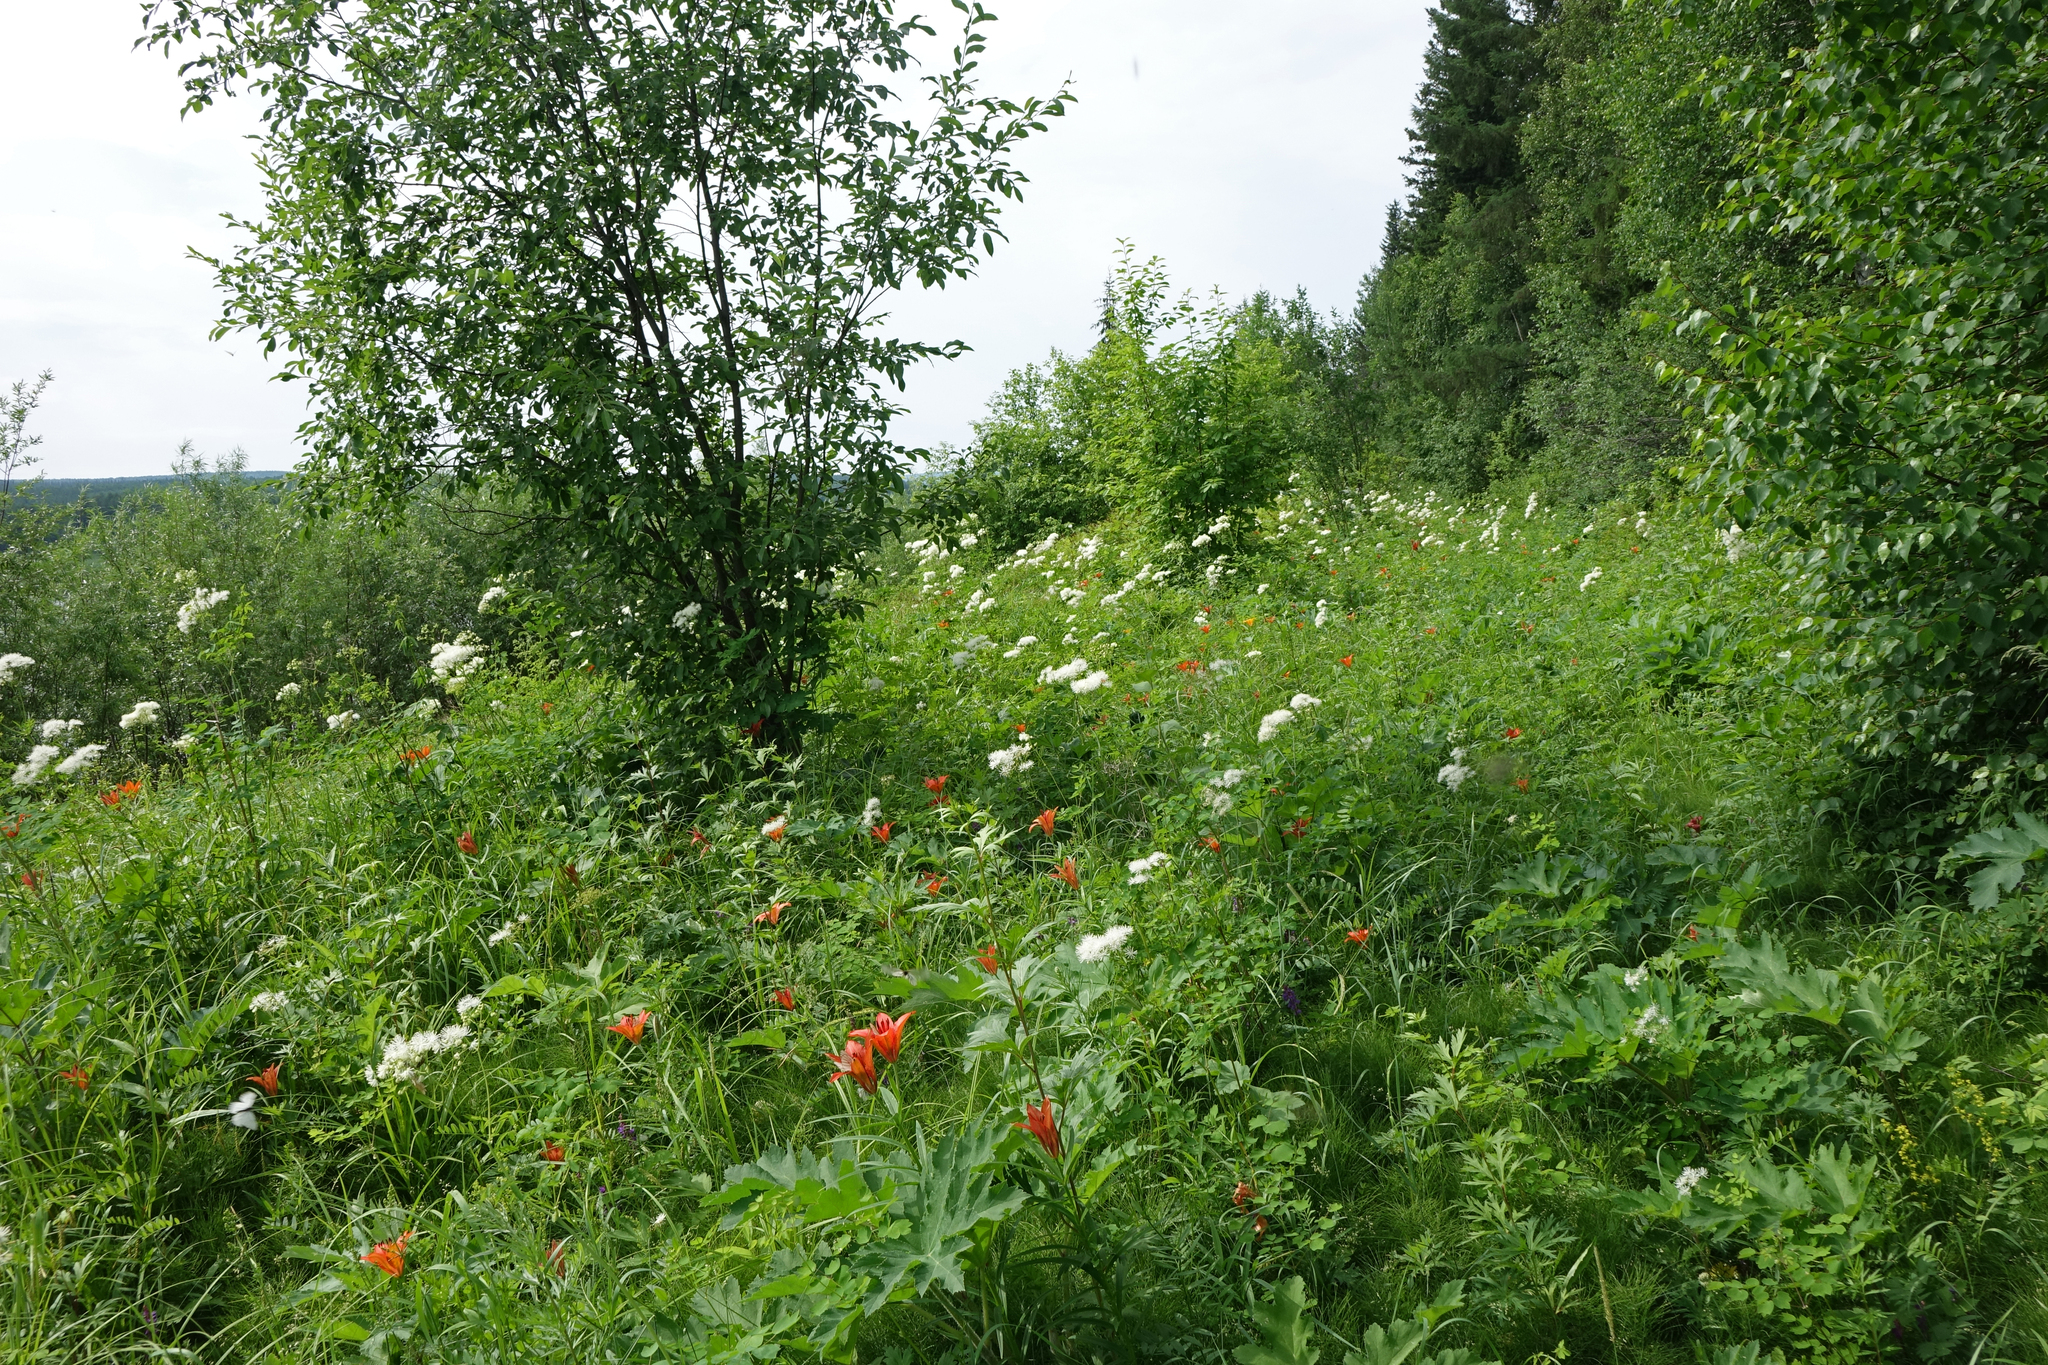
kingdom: Plantae
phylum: Tracheophyta
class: Magnoliopsida
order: Ranunculales
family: Ranunculaceae
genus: Thalictrum
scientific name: Thalictrum aquilegiifolium
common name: French meadow-rue
